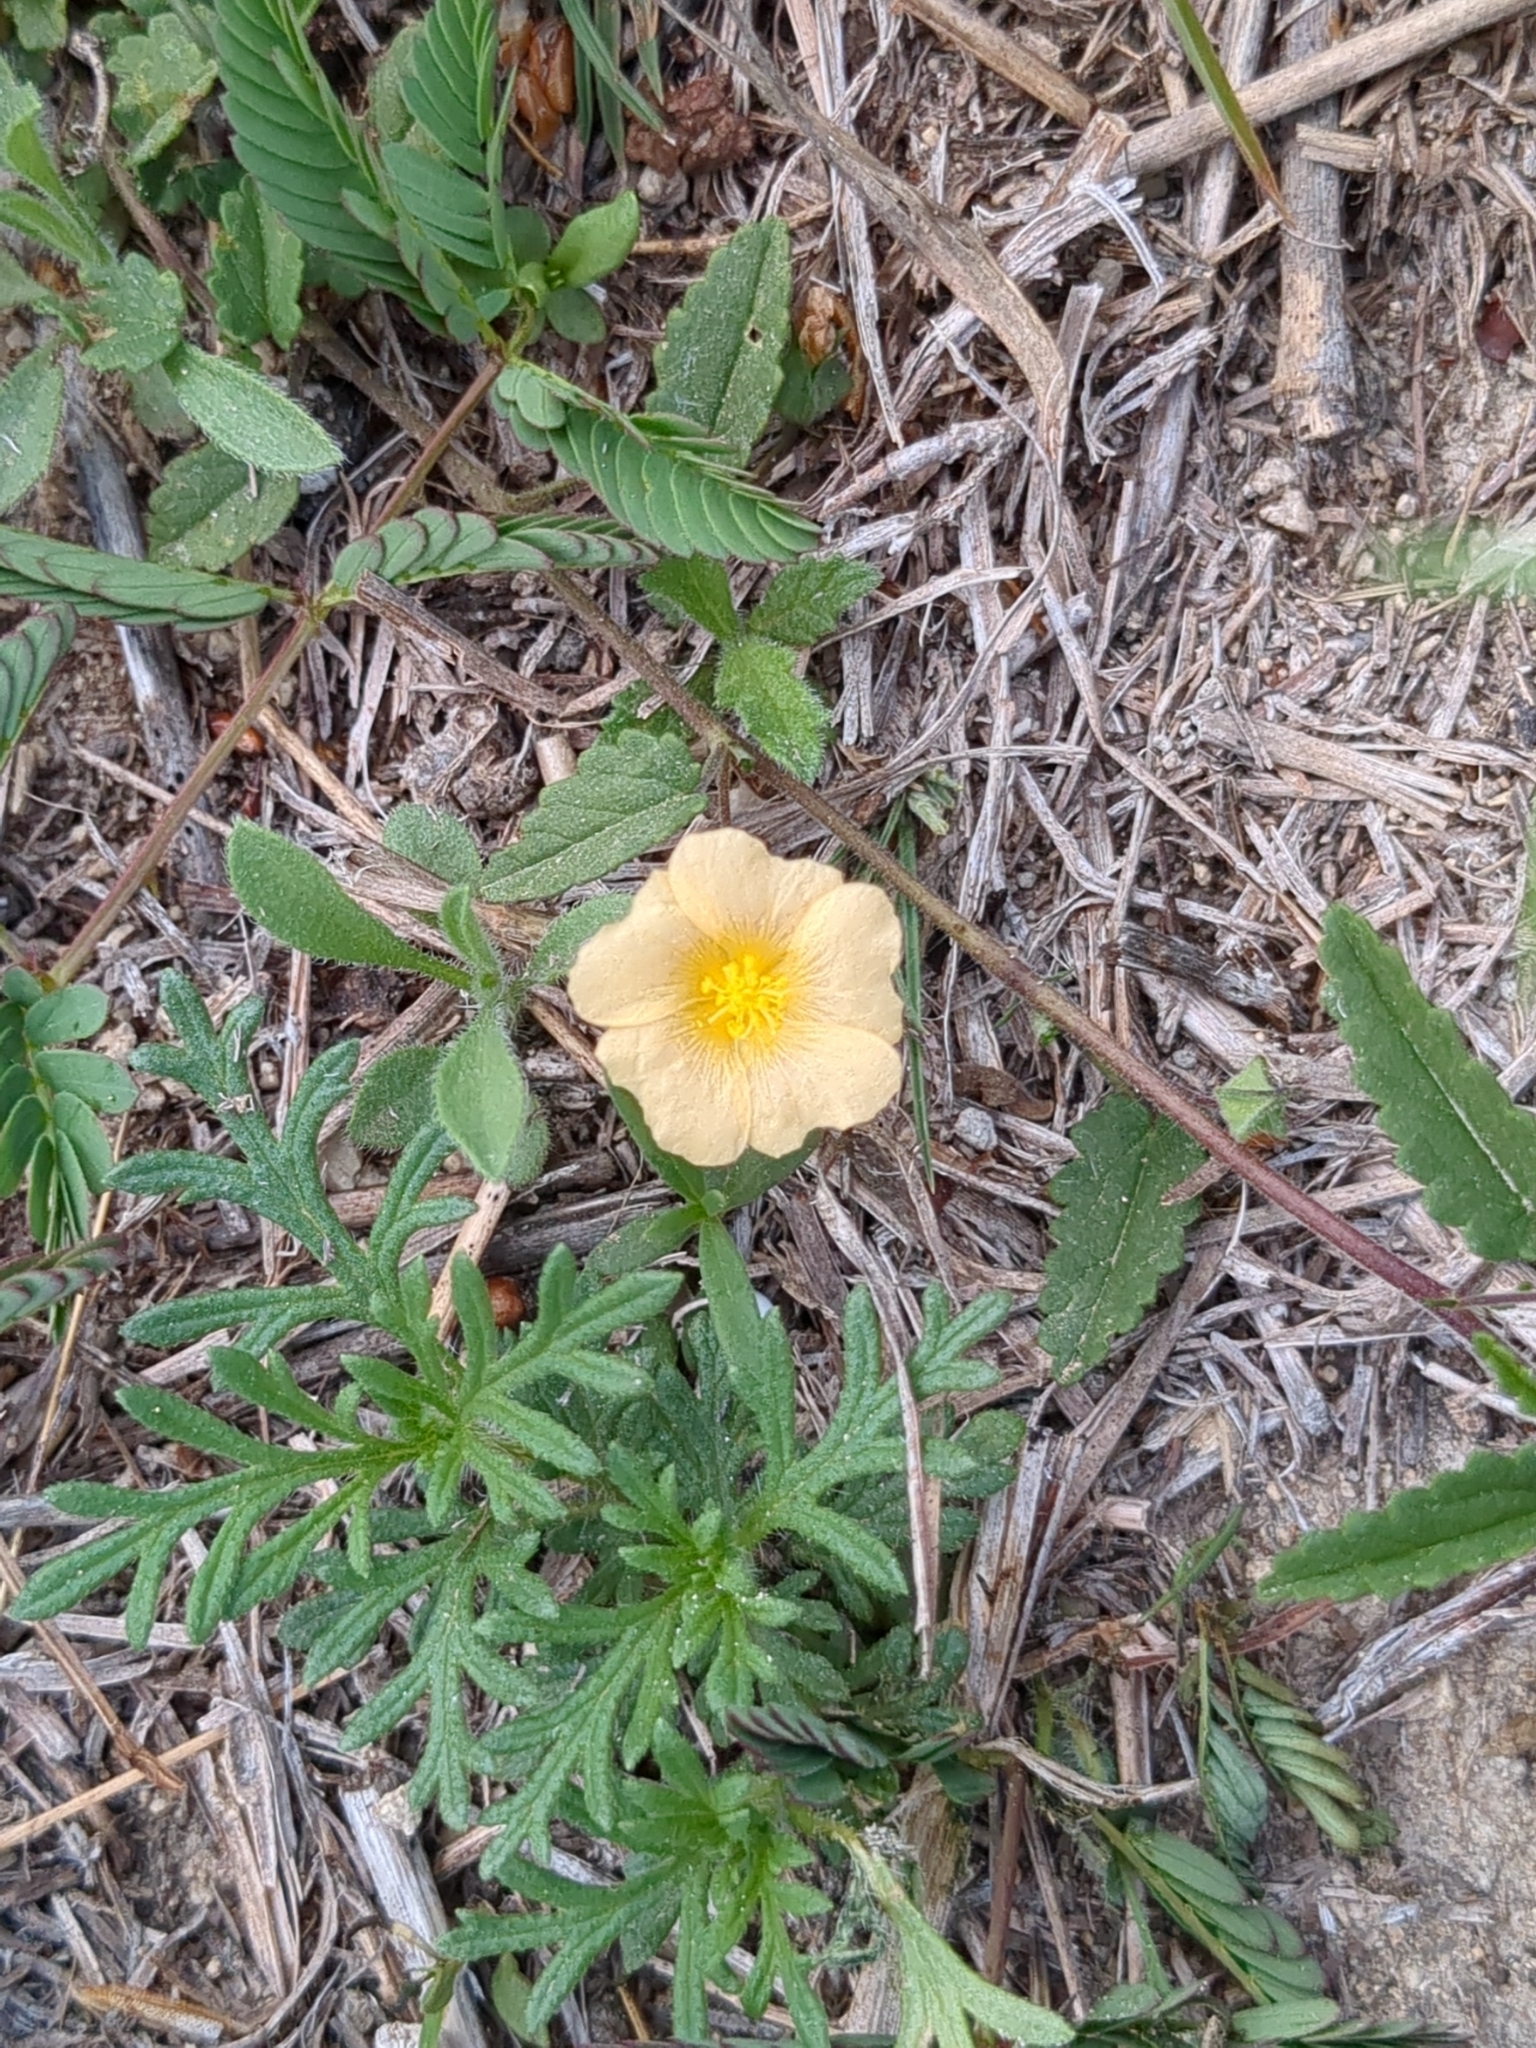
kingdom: Plantae
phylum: Tracheophyta
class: Magnoliopsida
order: Malvales
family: Malvaceae
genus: Sida
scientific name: Sida abutilifolia
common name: Spreading fanpetals
